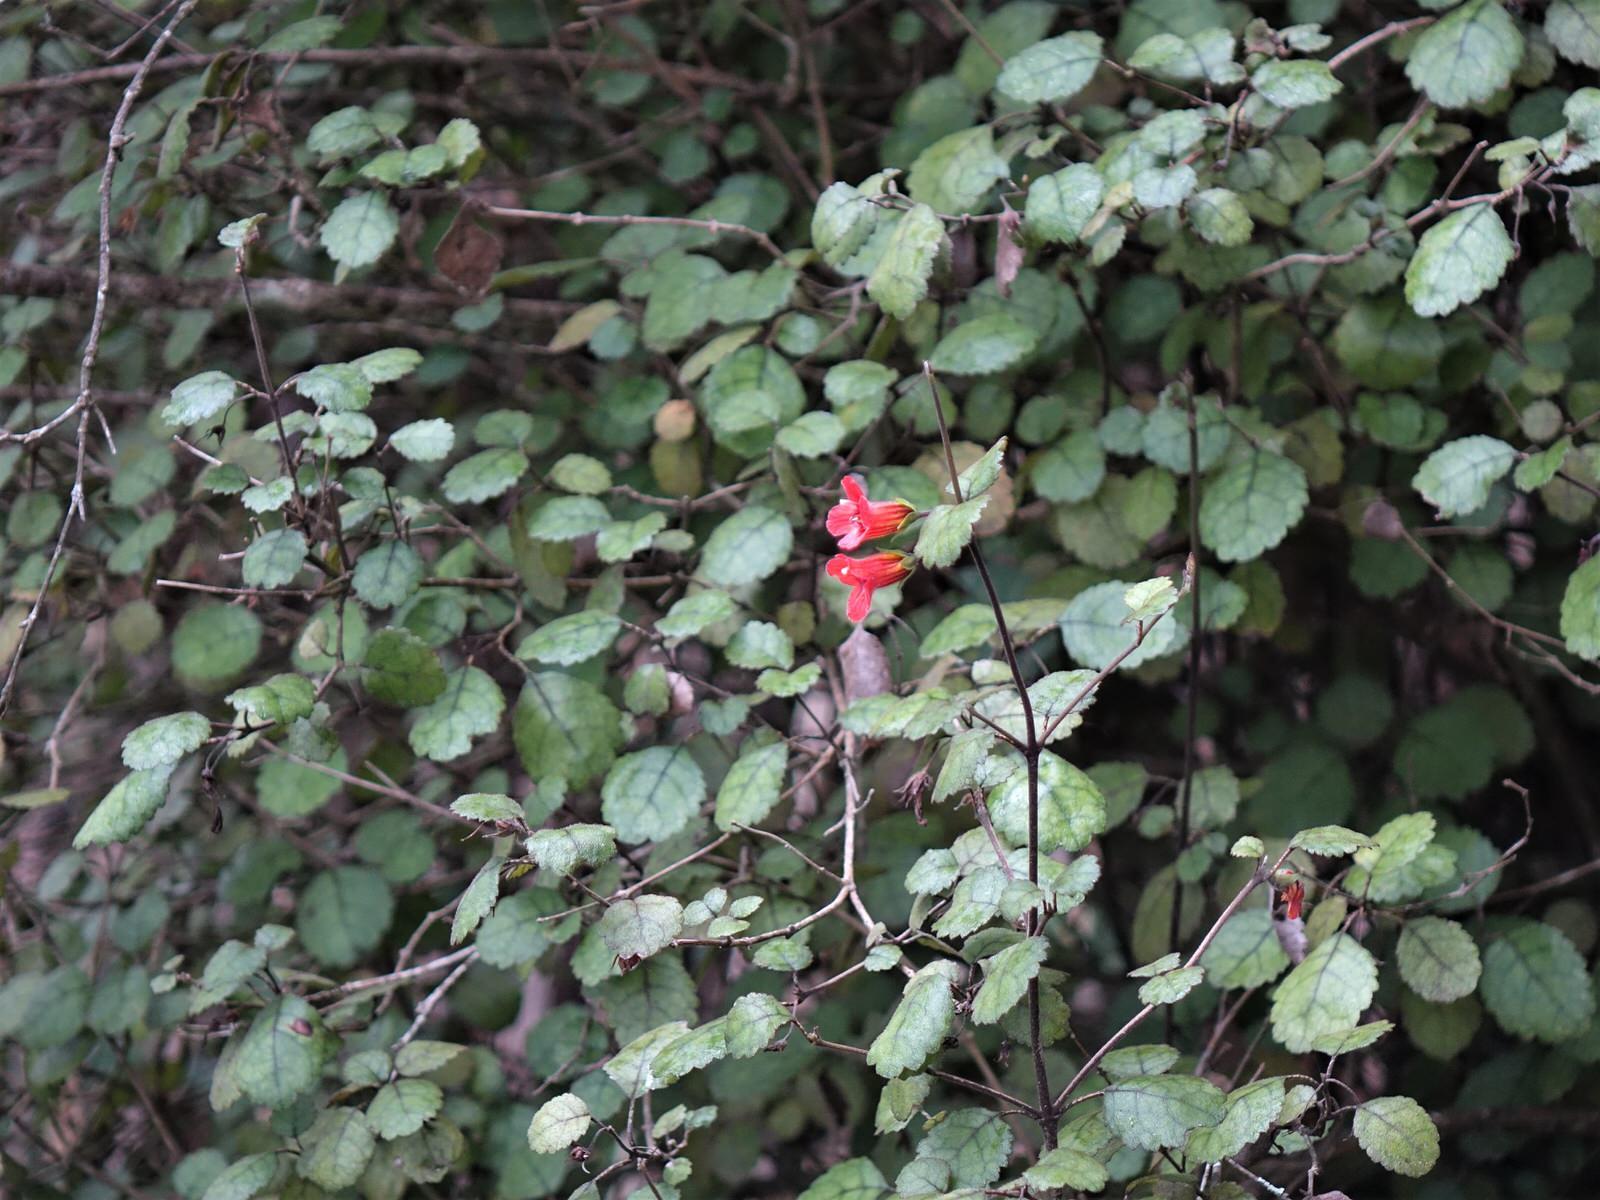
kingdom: Plantae
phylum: Tracheophyta
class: Magnoliopsida
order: Lamiales
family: Gesneriaceae
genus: Rhabdothamnus
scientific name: Rhabdothamnus solandri
